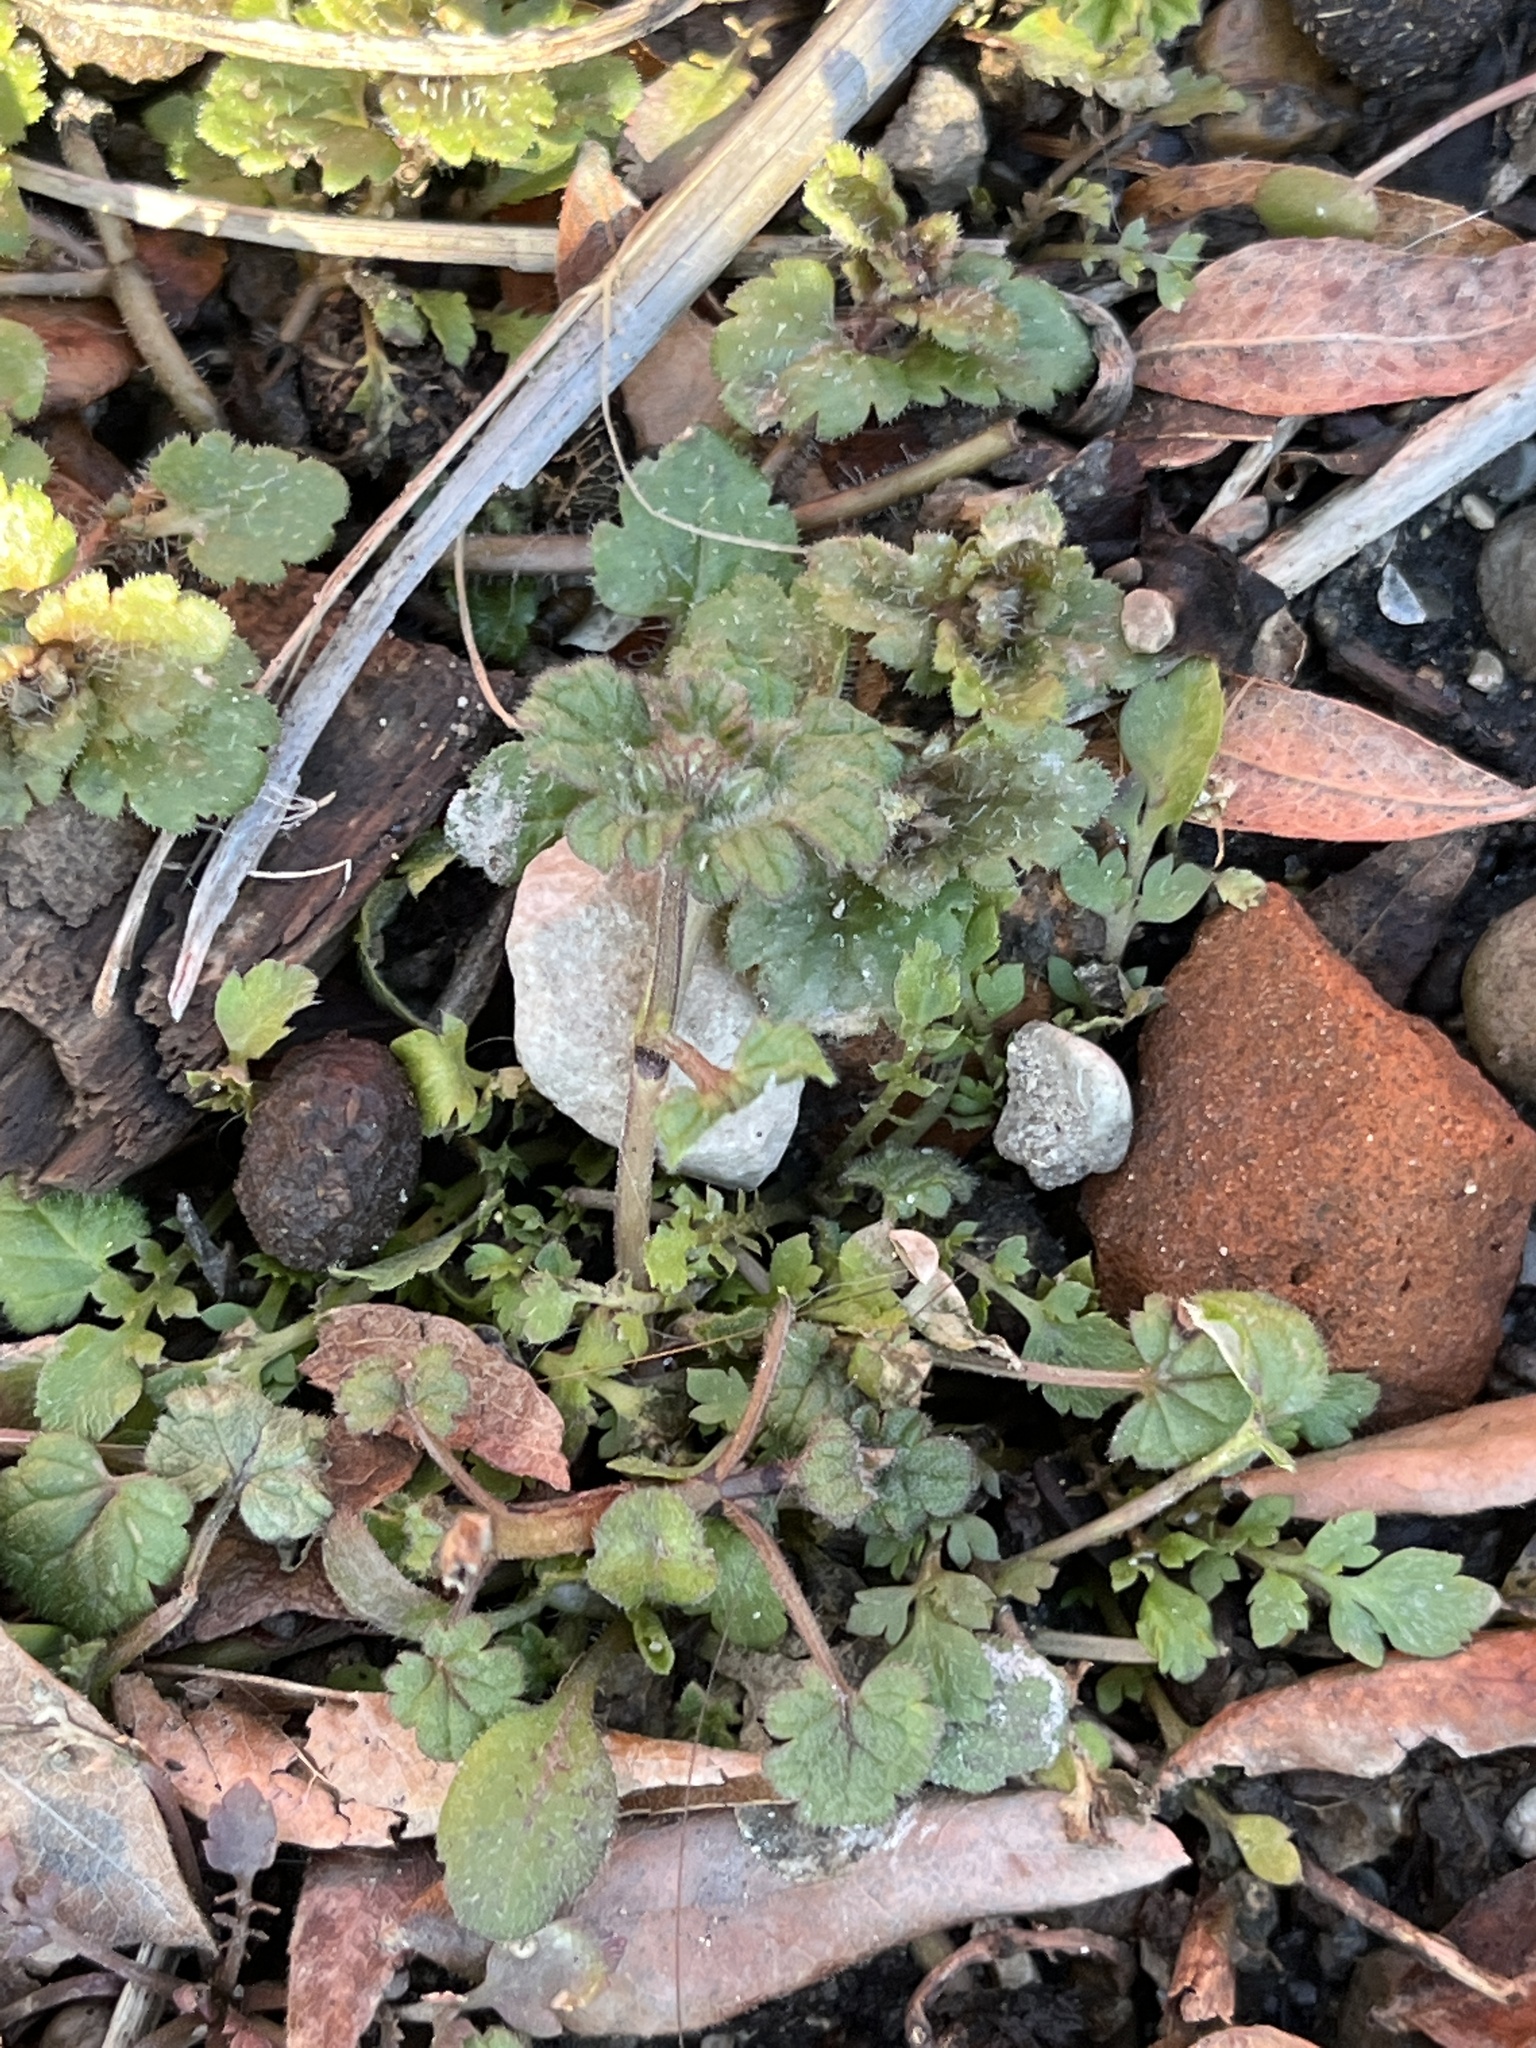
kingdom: Plantae
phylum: Tracheophyta
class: Magnoliopsida
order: Lamiales
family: Lamiaceae
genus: Lamium
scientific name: Lamium amplexicaule
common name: Henbit dead-nettle
